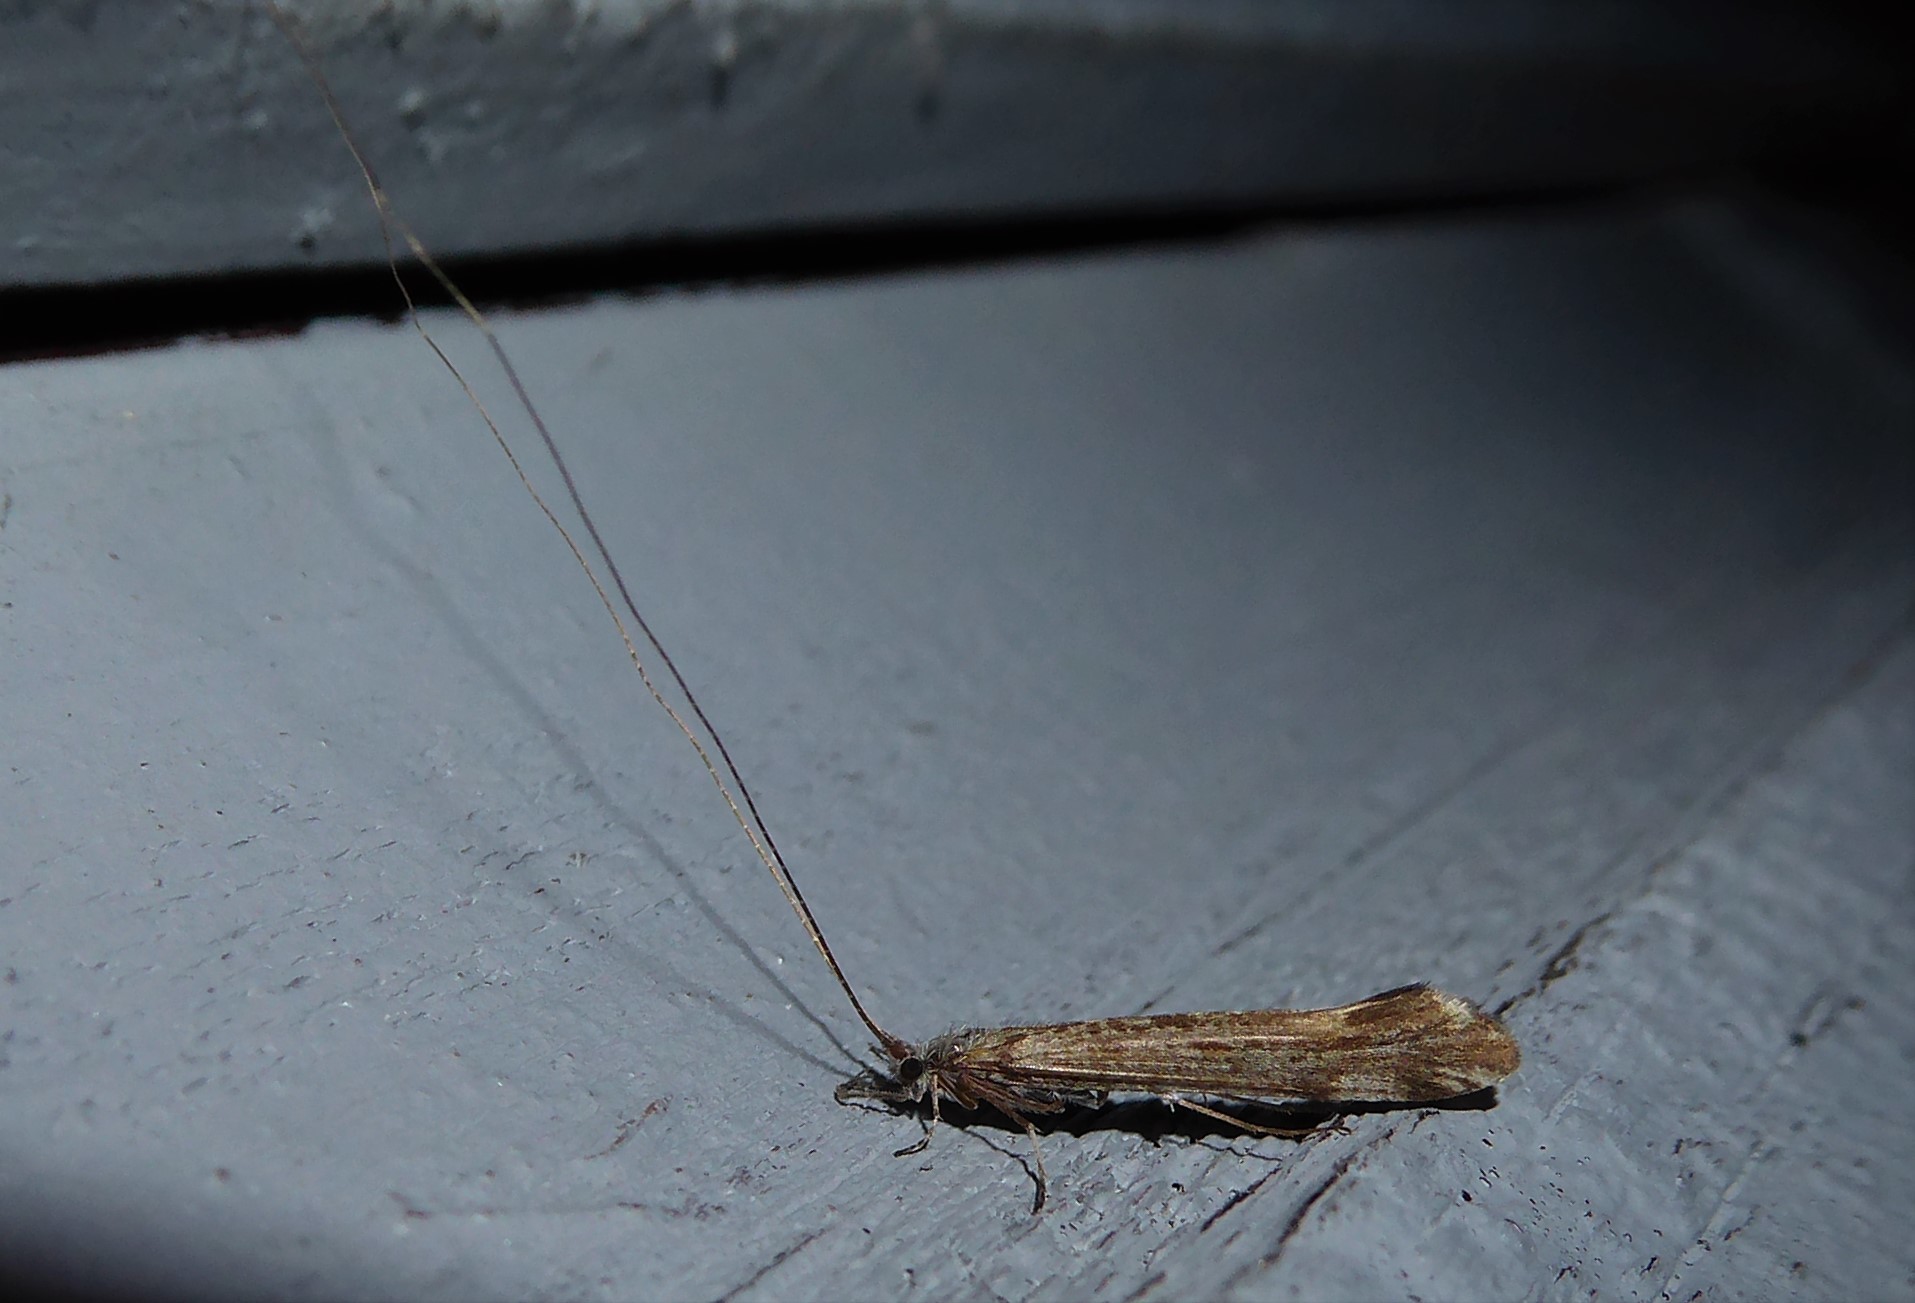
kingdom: Animalia
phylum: Arthropoda
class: Insecta
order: Trichoptera
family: Leptoceridae
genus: Hudsonema
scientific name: Hudsonema amabile
